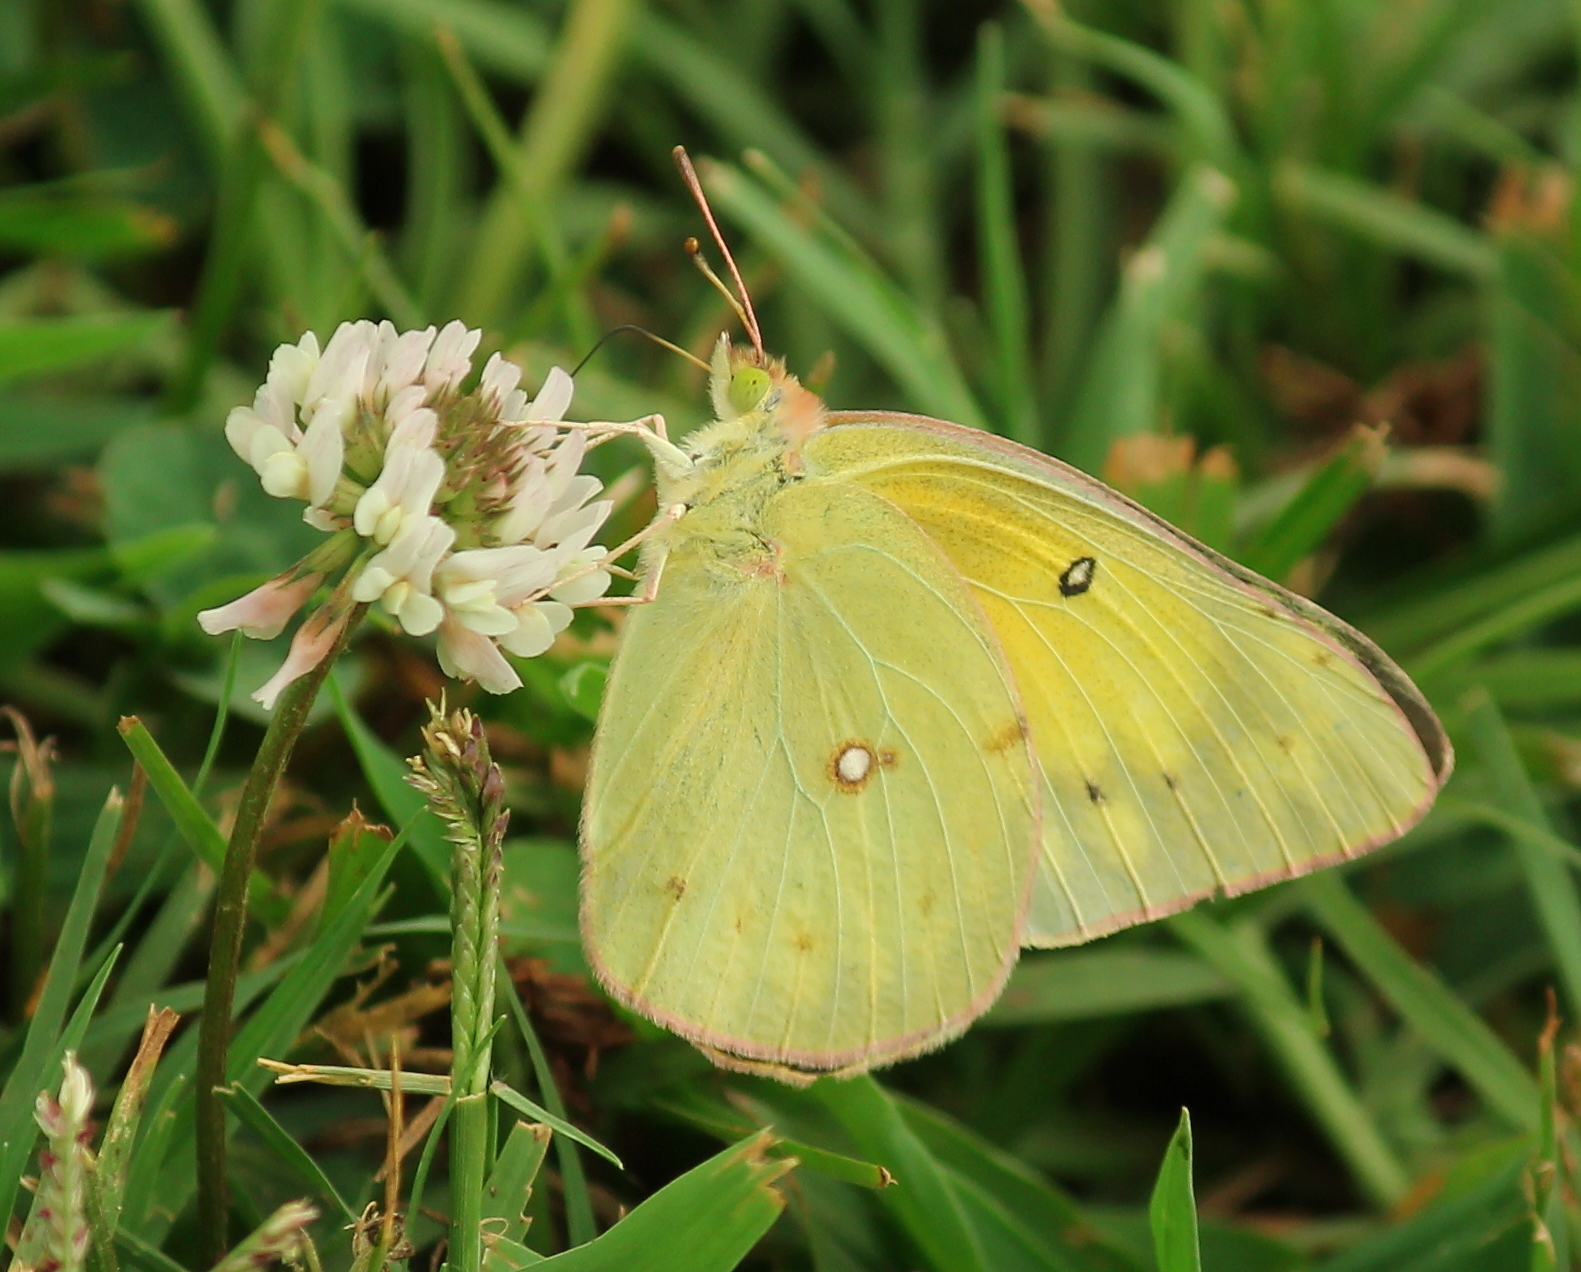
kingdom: Animalia
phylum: Arthropoda
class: Insecta
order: Lepidoptera
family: Pieridae
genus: Colias
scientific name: Colias eurytheme
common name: Alfalfa butterfly
